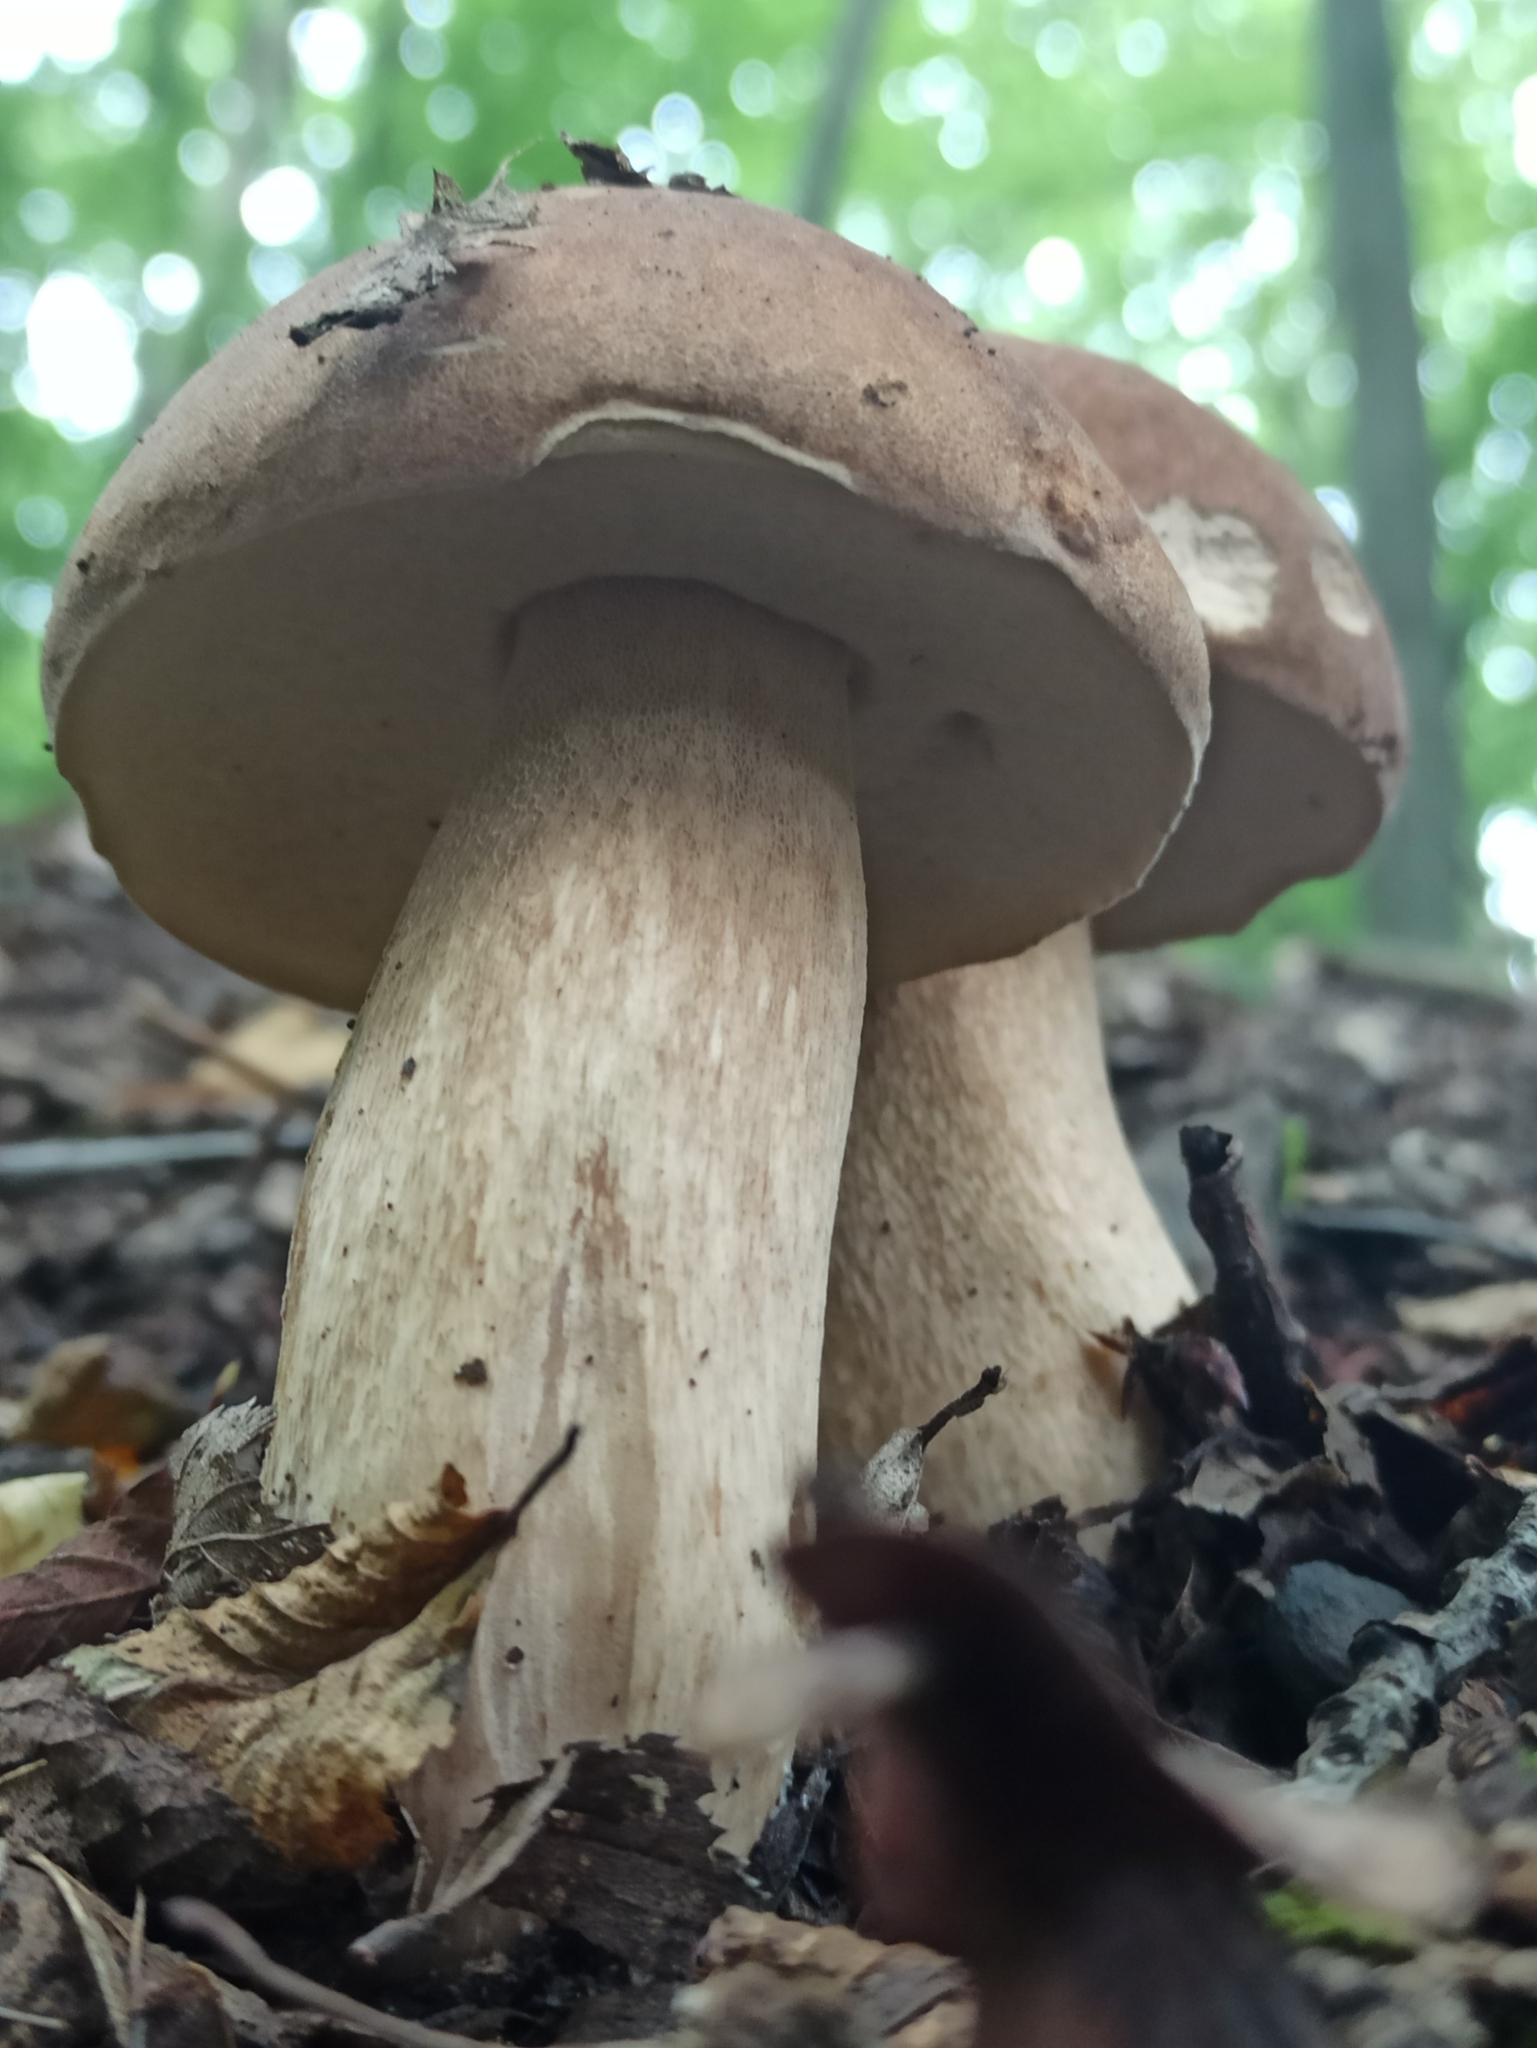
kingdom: Fungi
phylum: Basidiomycota
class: Agaricomycetes
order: Boletales
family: Boletaceae
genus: Boletus
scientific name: Boletus reticulatus
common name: Summer bolete
